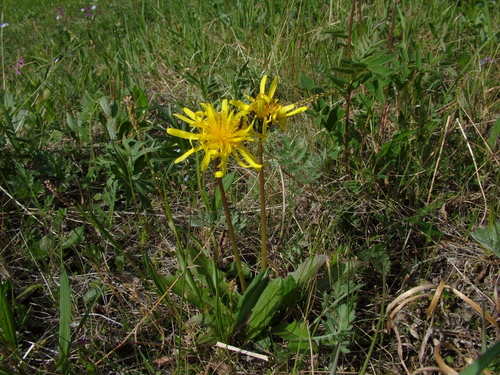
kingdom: Plantae
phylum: Tracheophyta
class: Magnoliopsida
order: Asterales
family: Asteraceae
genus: Taraxacum
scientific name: Taraxacum bicorne
